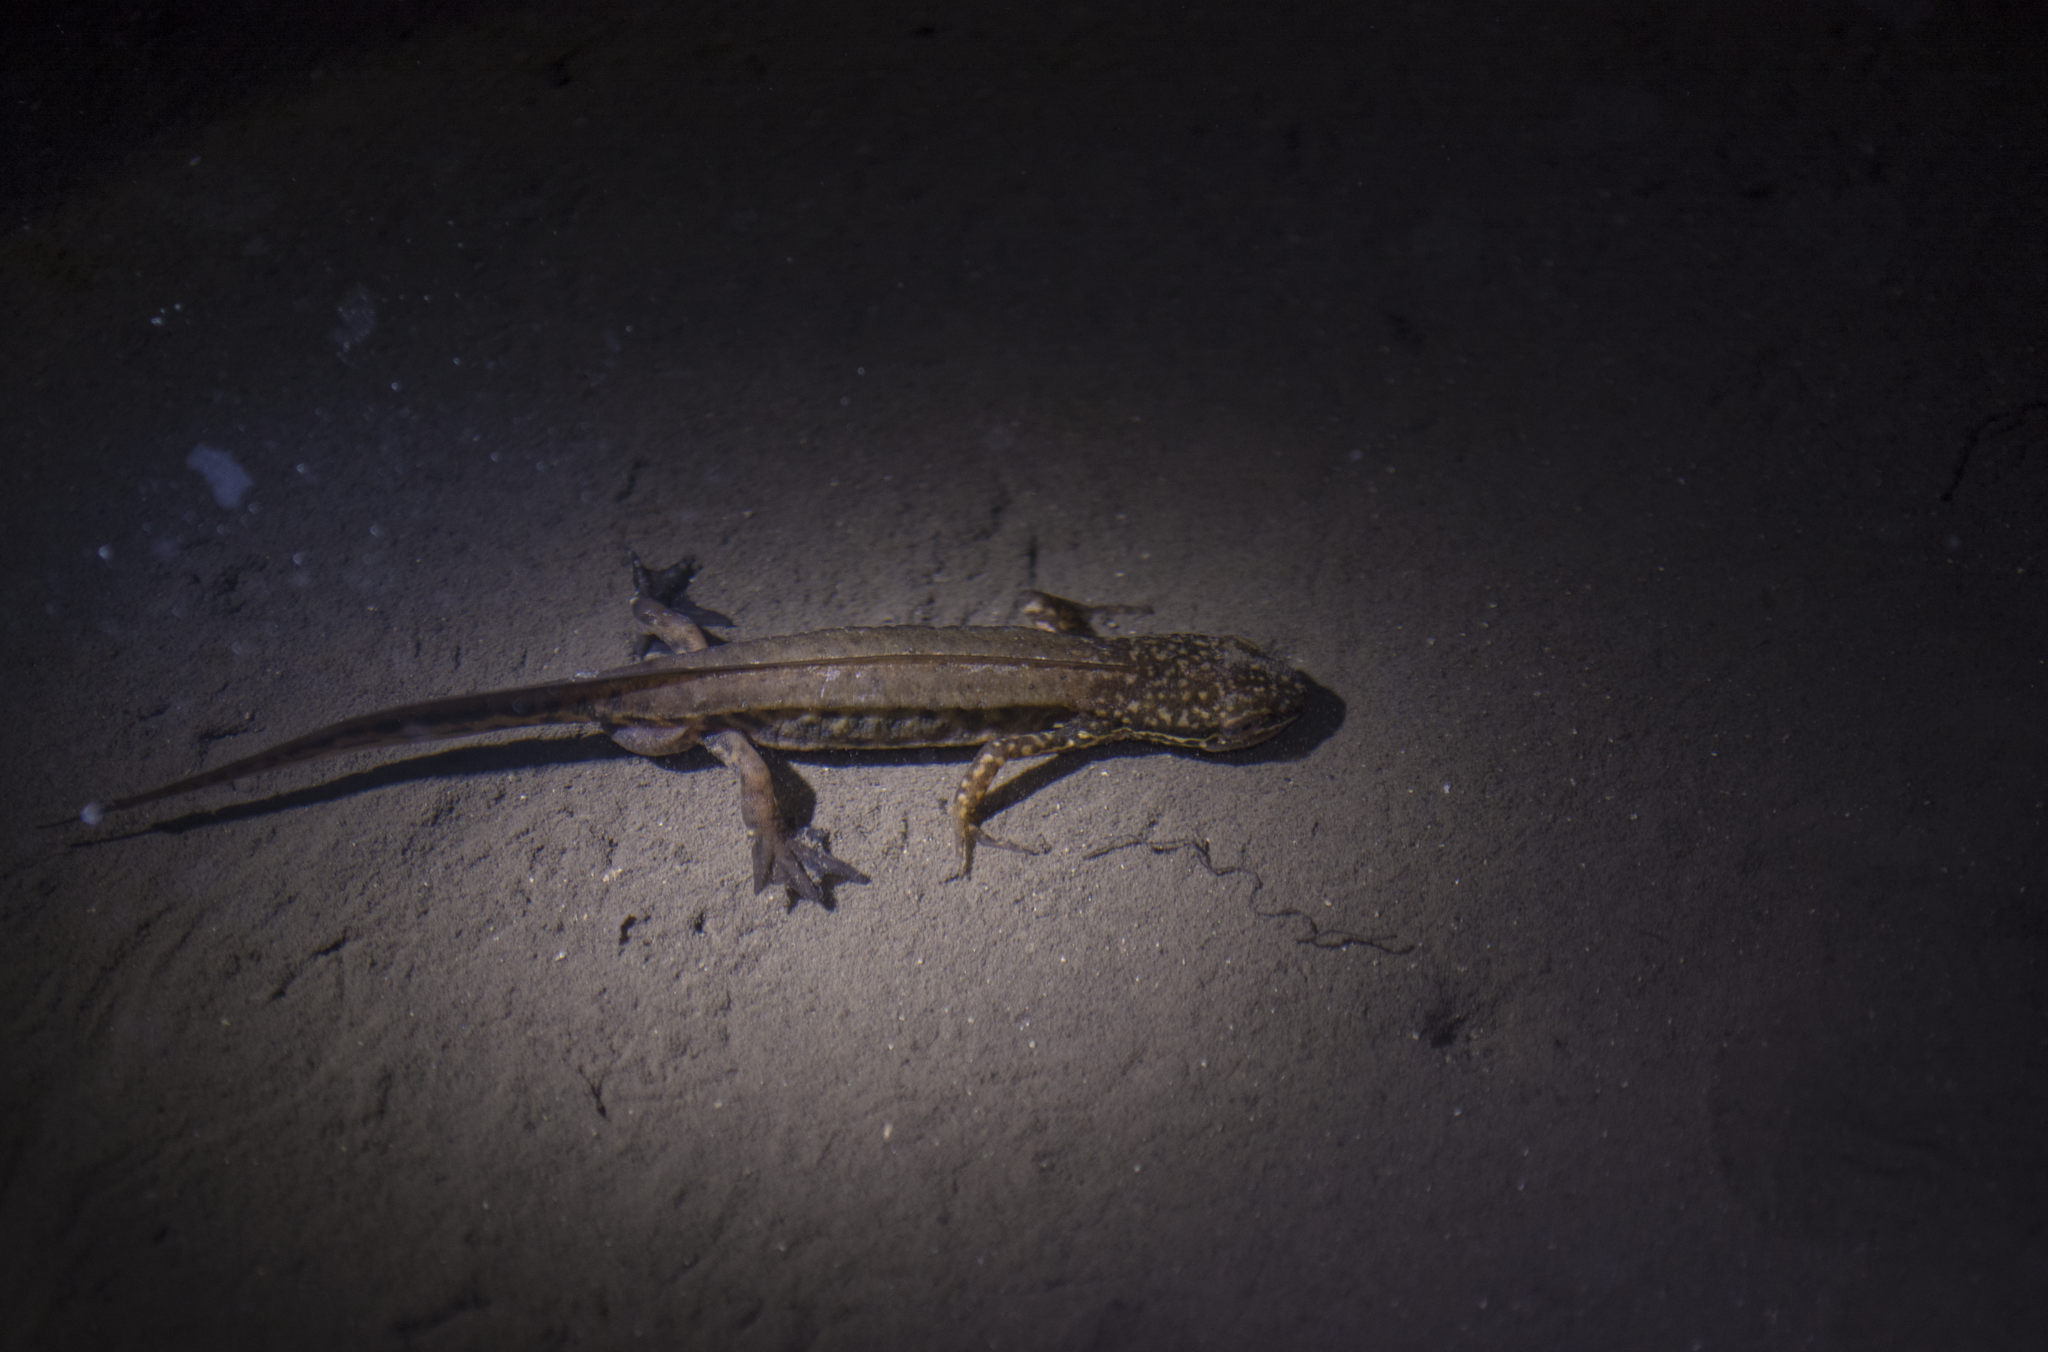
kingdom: Animalia
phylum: Chordata
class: Amphibia
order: Caudata
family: Salamandridae
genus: Lissotriton
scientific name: Lissotriton helveticus
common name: Palmate newt
